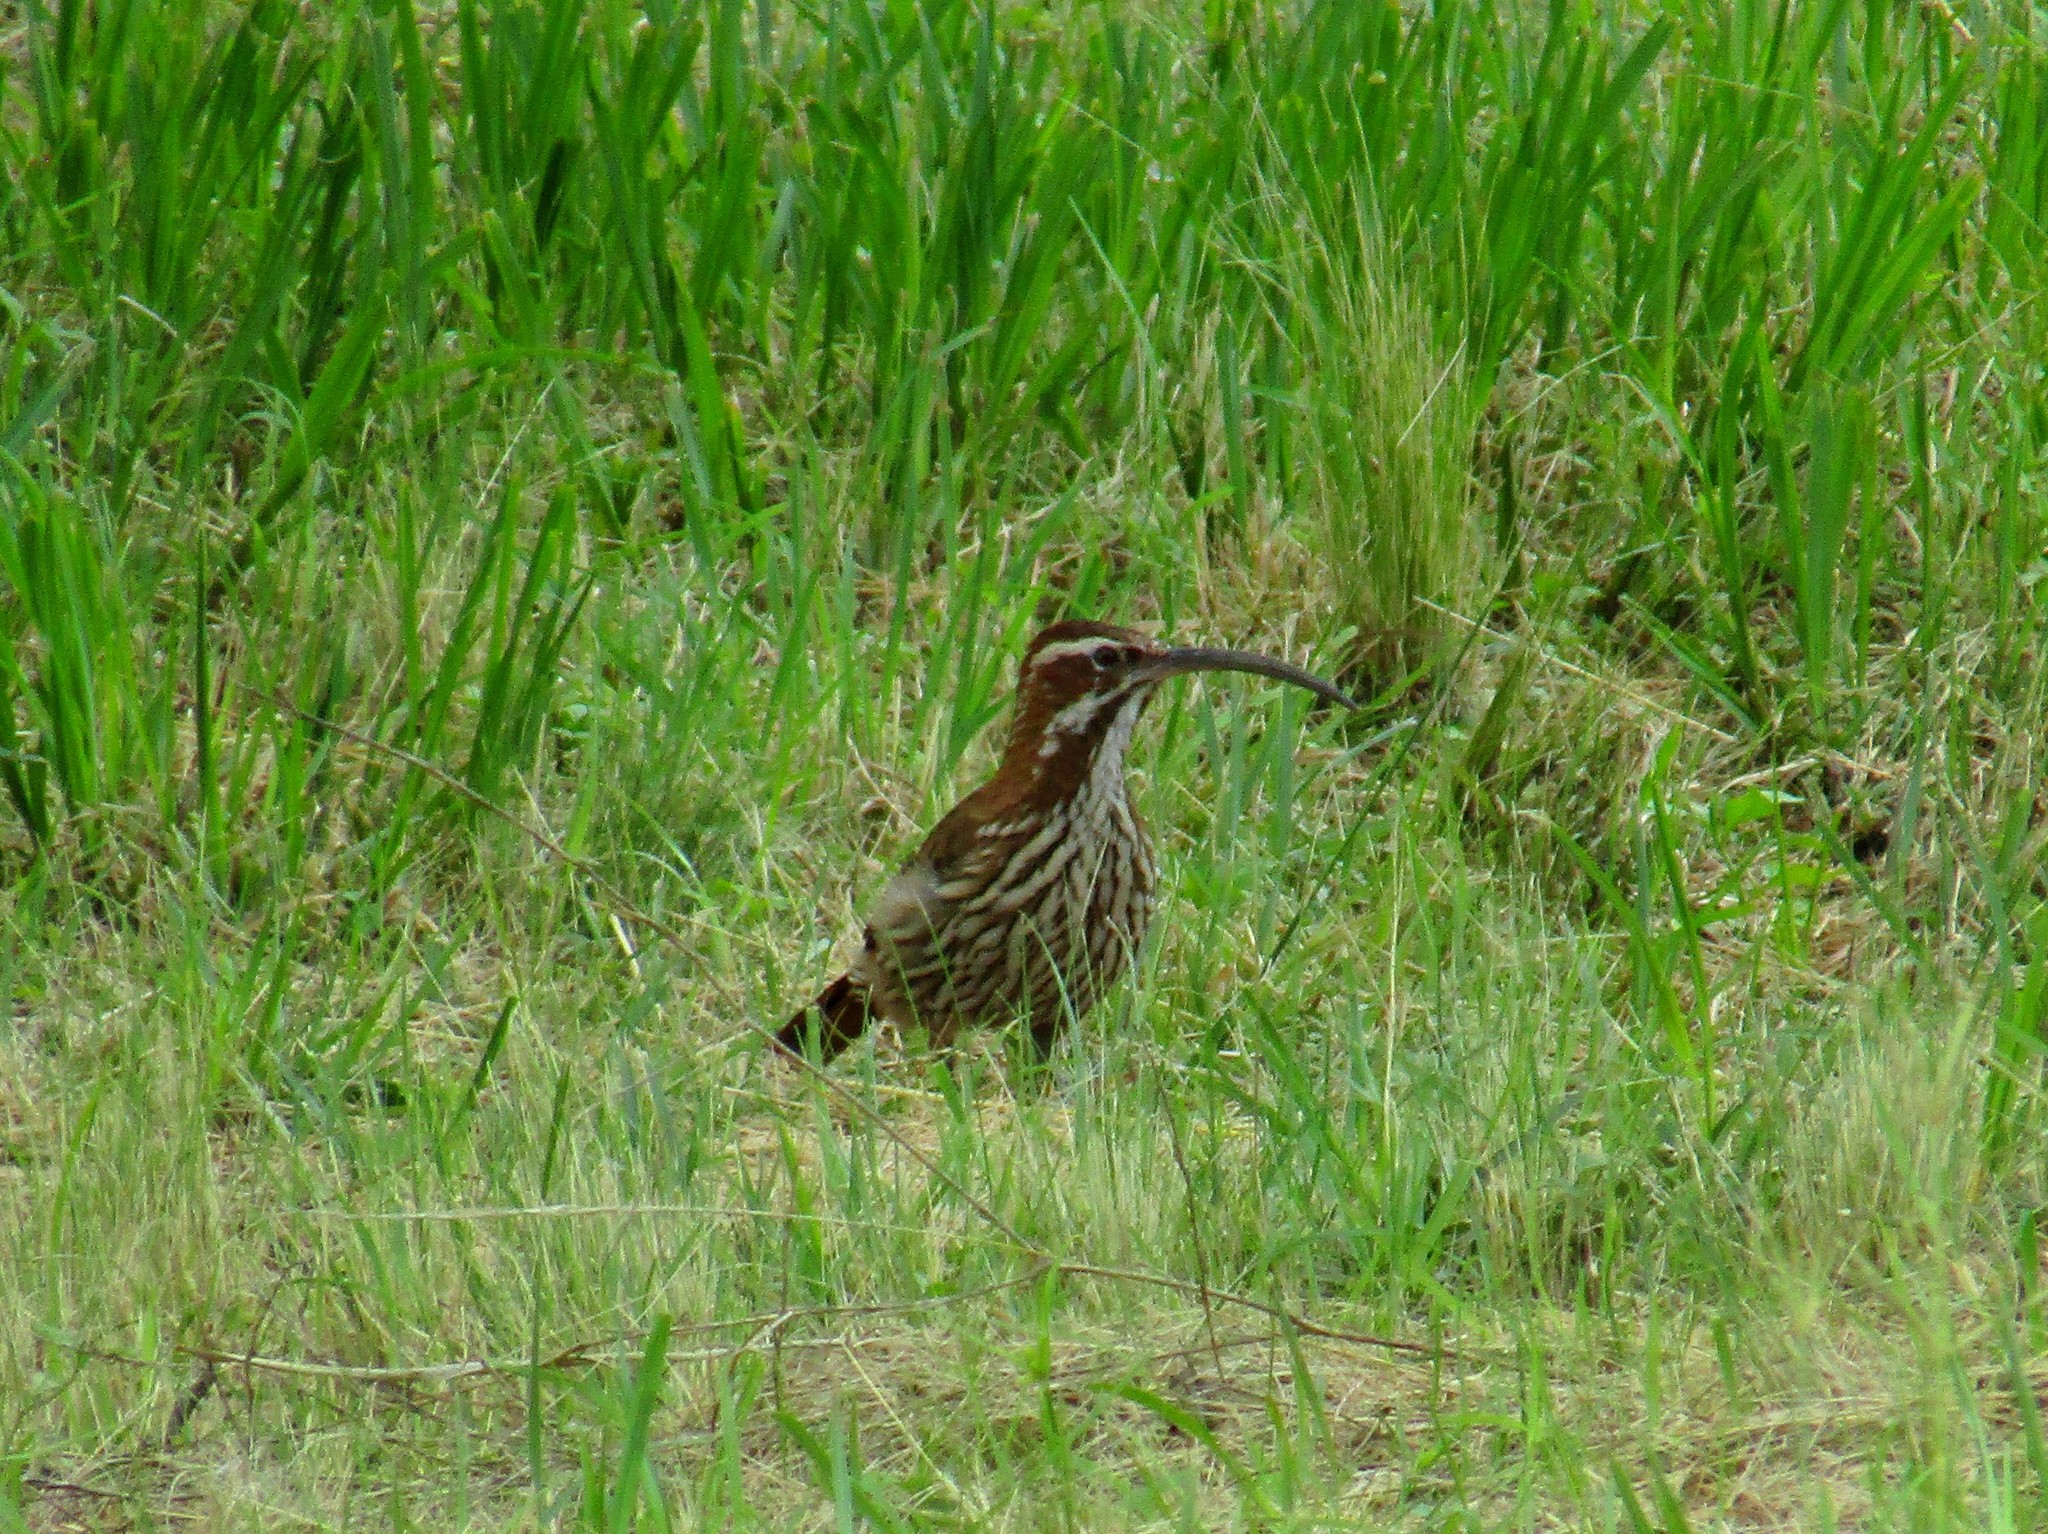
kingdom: Animalia
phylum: Chordata
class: Aves
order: Passeriformes
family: Furnariidae
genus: Drymornis
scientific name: Drymornis bridgesii
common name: Scimitar-billed woodcreeper
